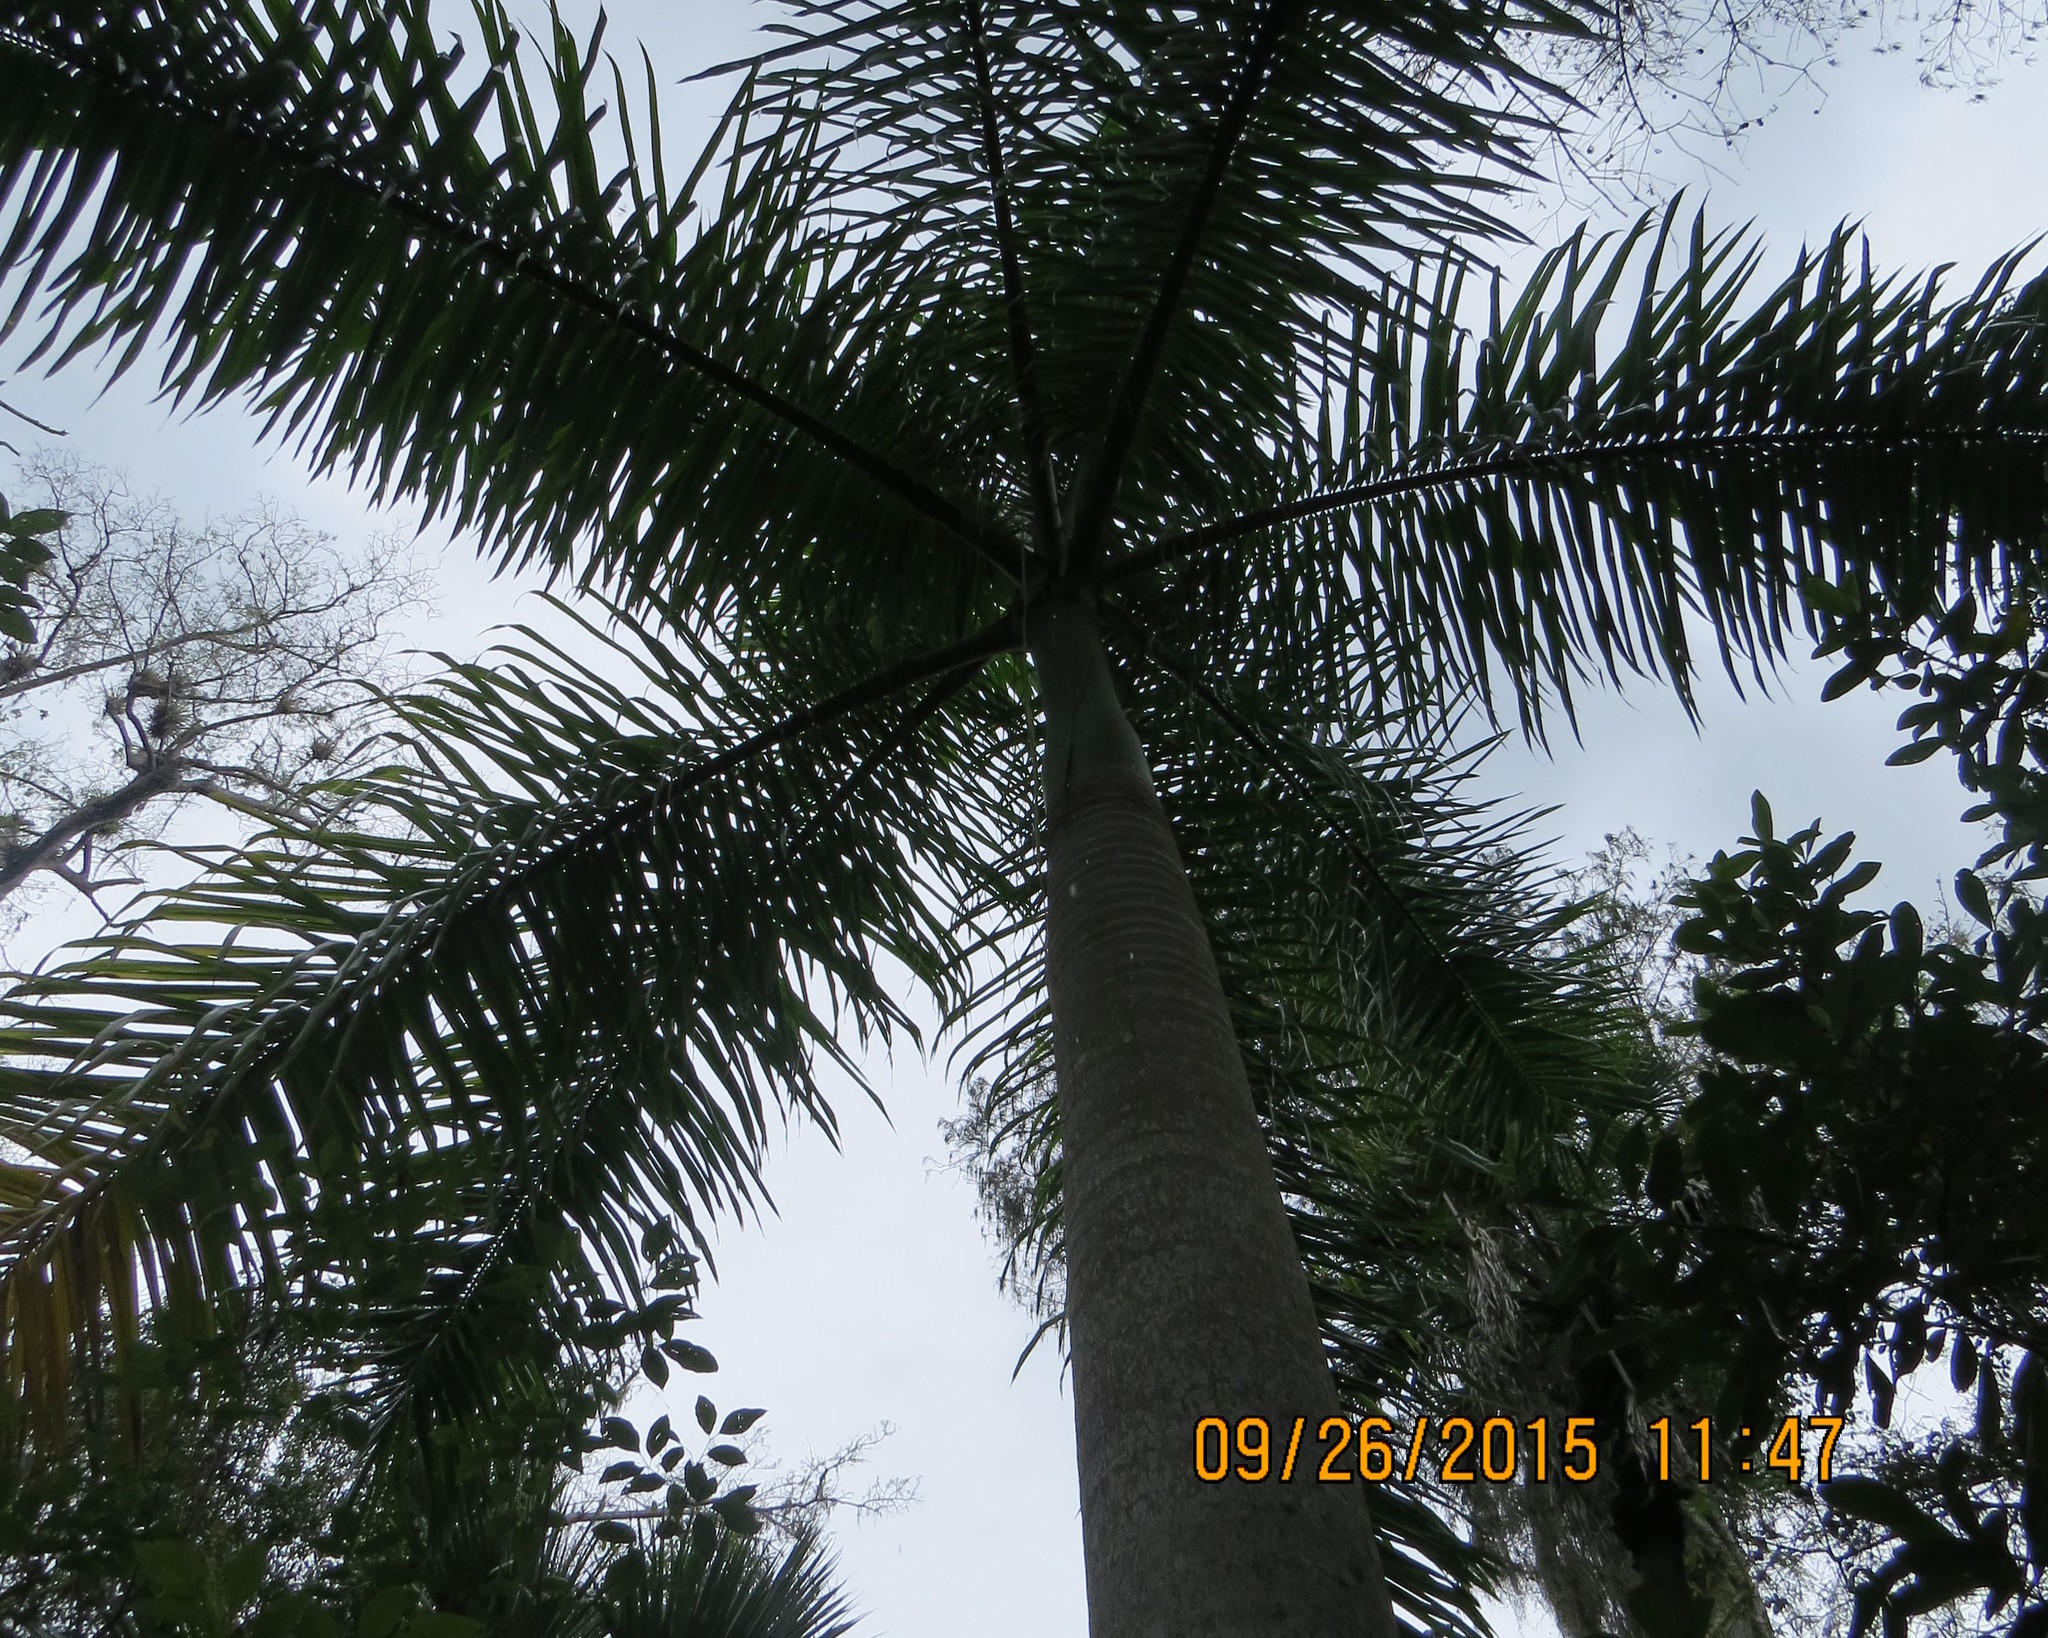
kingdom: Plantae
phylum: Tracheophyta
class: Liliopsida
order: Arecales
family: Arecaceae
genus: Roystonea
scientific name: Roystonea regia
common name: Florida royal palm
